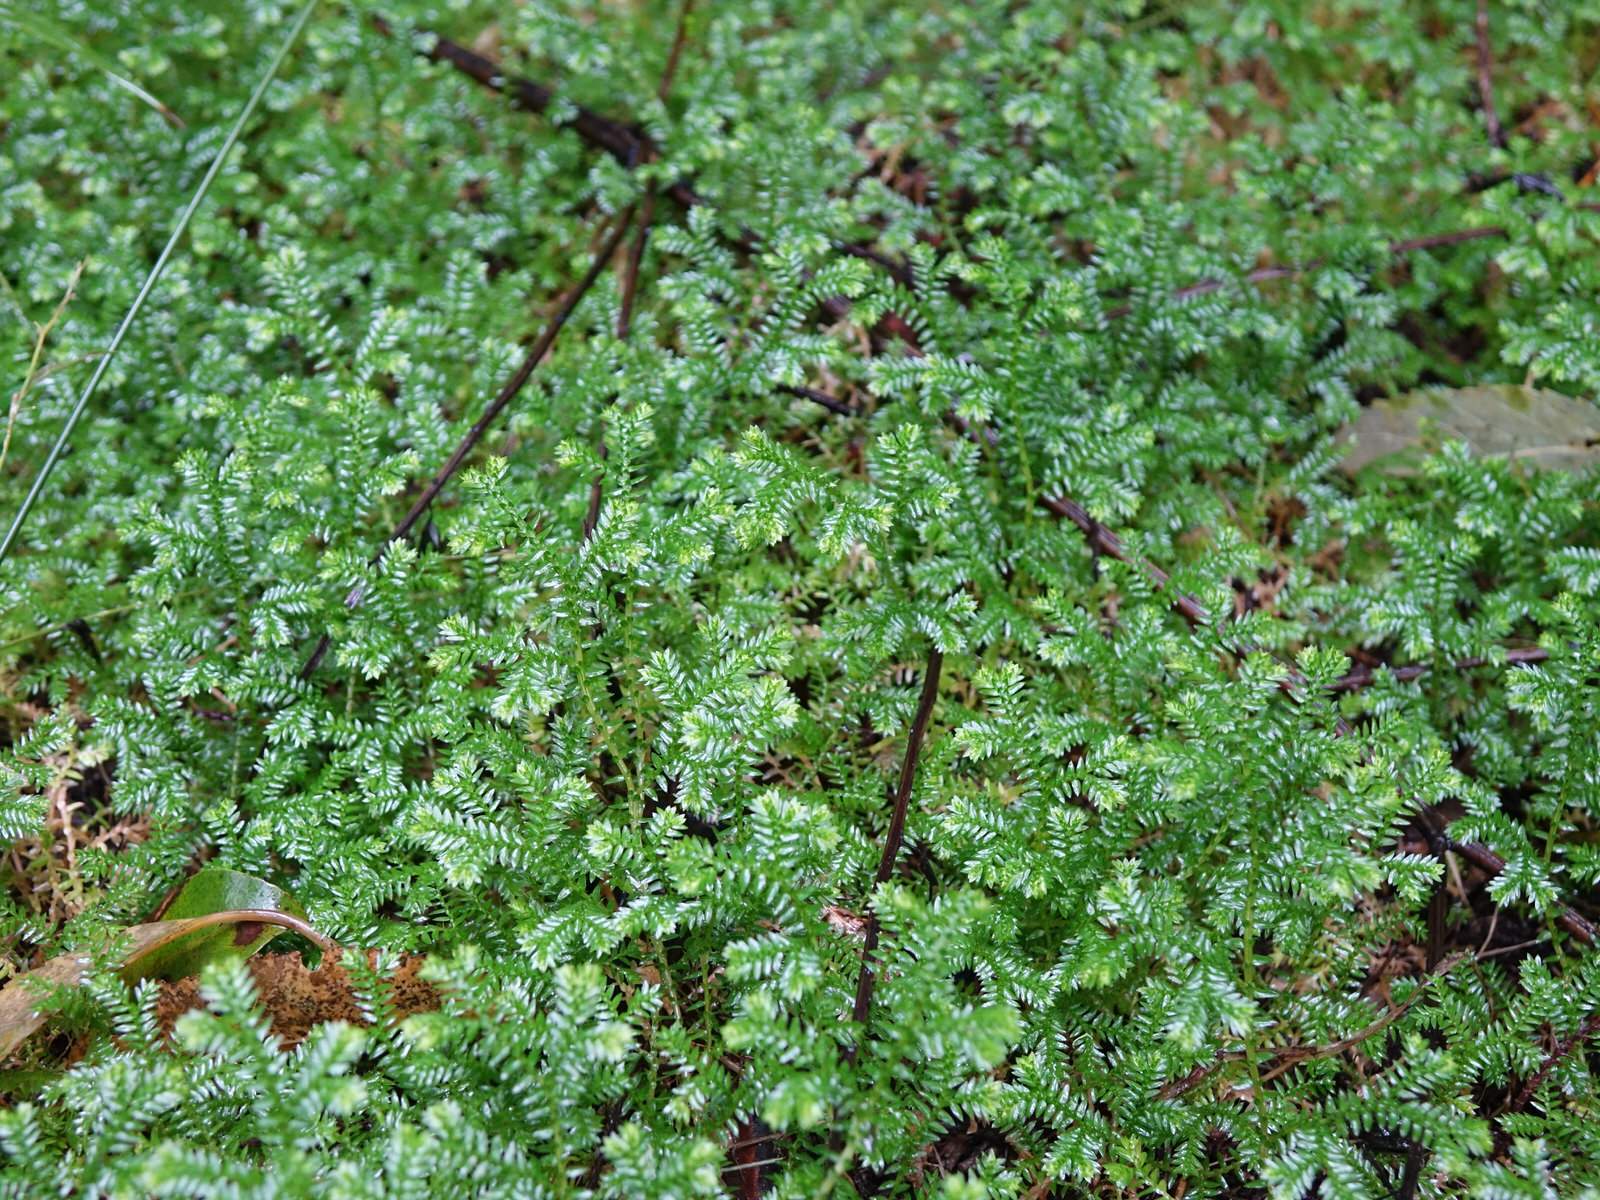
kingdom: Plantae
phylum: Tracheophyta
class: Lycopodiopsida
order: Selaginellales
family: Selaginellaceae
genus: Selaginella
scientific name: Selaginella kraussiana
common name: Krauss' spikemoss
